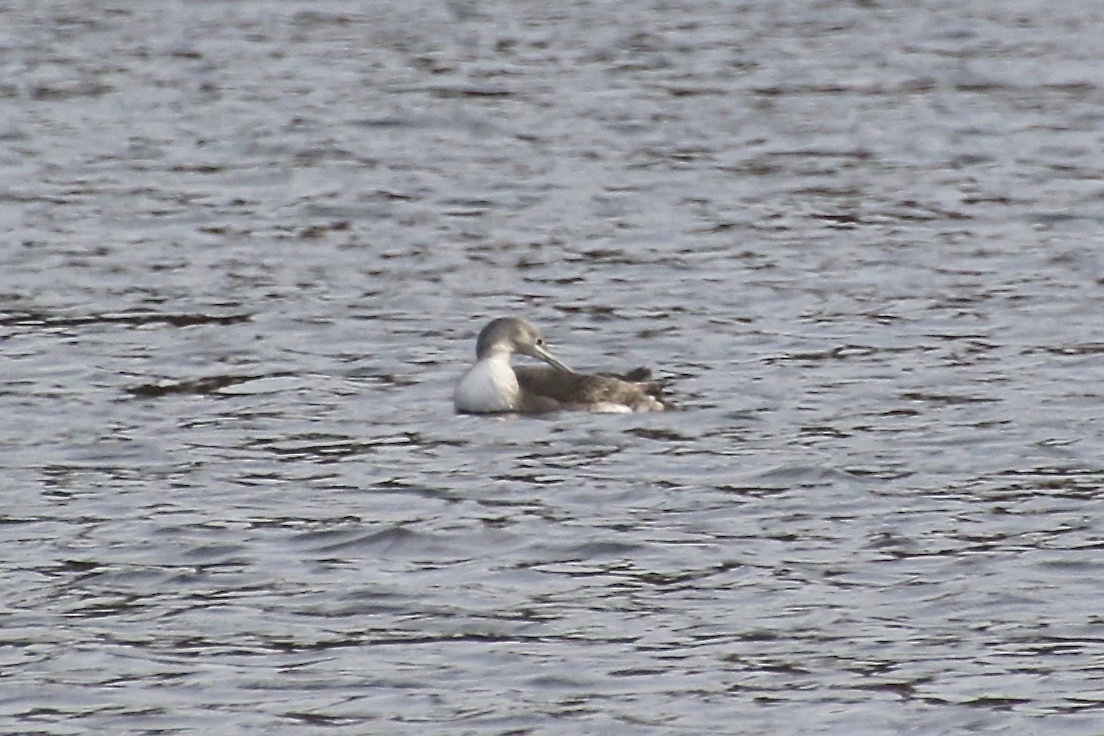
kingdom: Animalia
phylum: Chordata
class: Aves
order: Gaviiformes
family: Gaviidae
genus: Gavia
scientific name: Gavia stellata
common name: Red-throated loon
